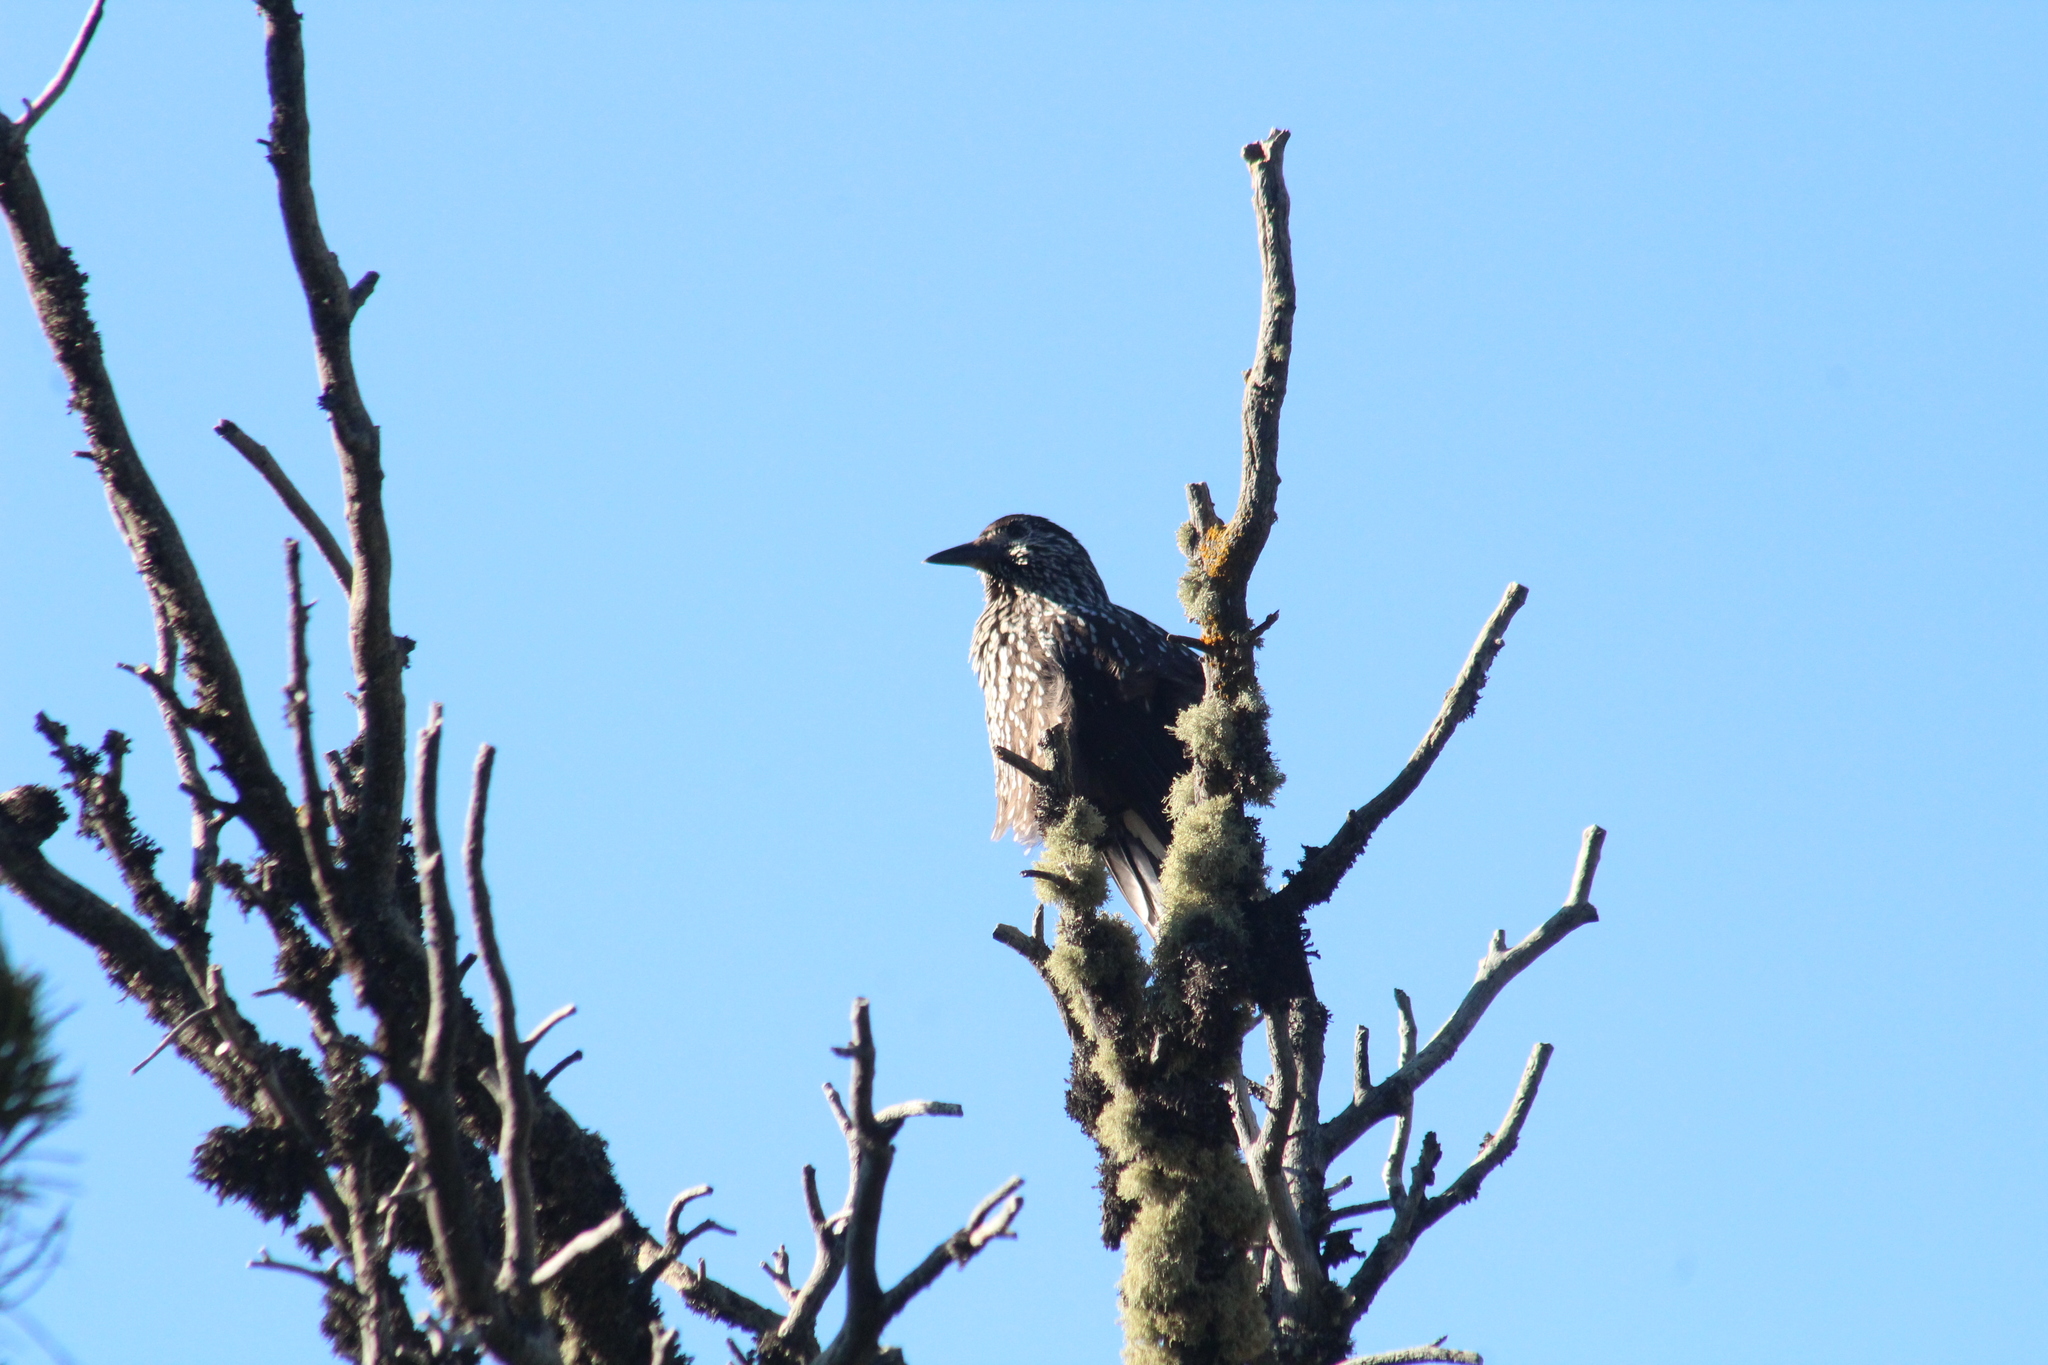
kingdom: Animalia
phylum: Chordata
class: Aves
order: Passeriformes
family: Corvidae
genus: Nucifraga
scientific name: Nucifraga caryocatactes
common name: Spotted nutcracker
